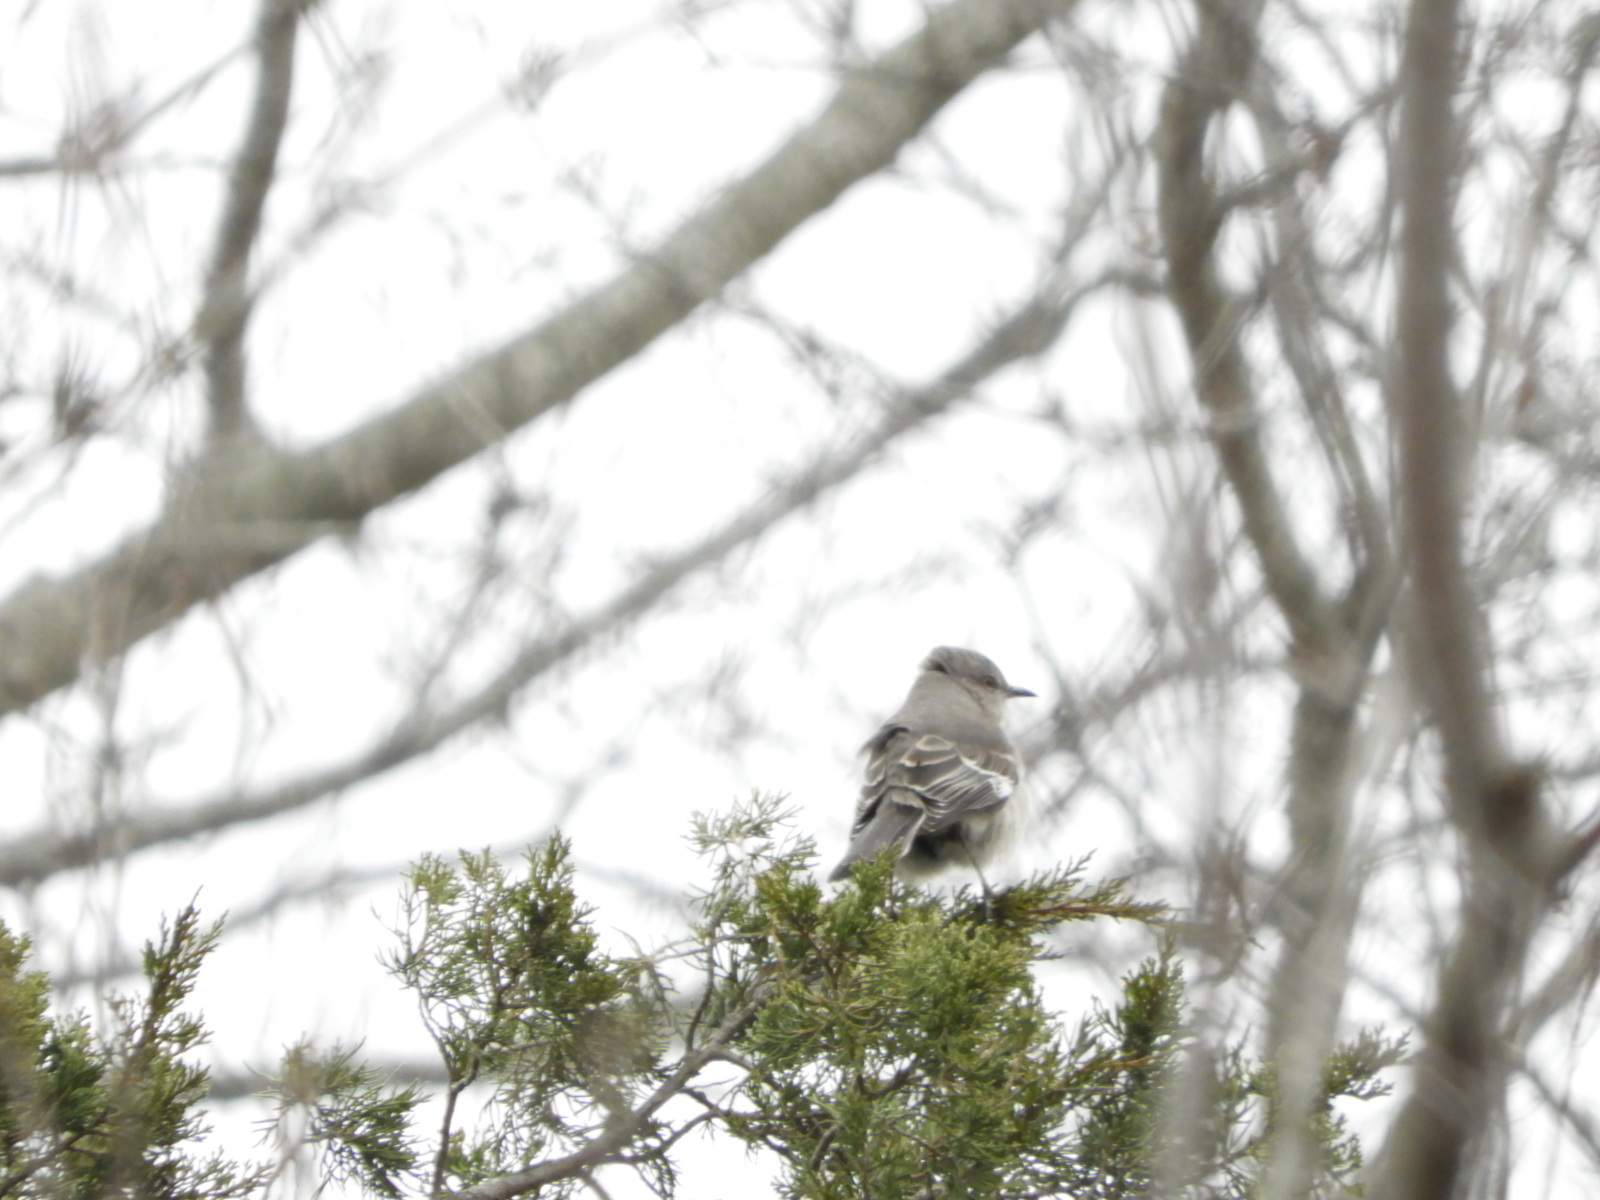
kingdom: Animalia
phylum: Chordata
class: Aves
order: Passeriformes
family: Mimidae
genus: Mimus
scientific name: Mimus polyglottos
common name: Northern mockingbird
